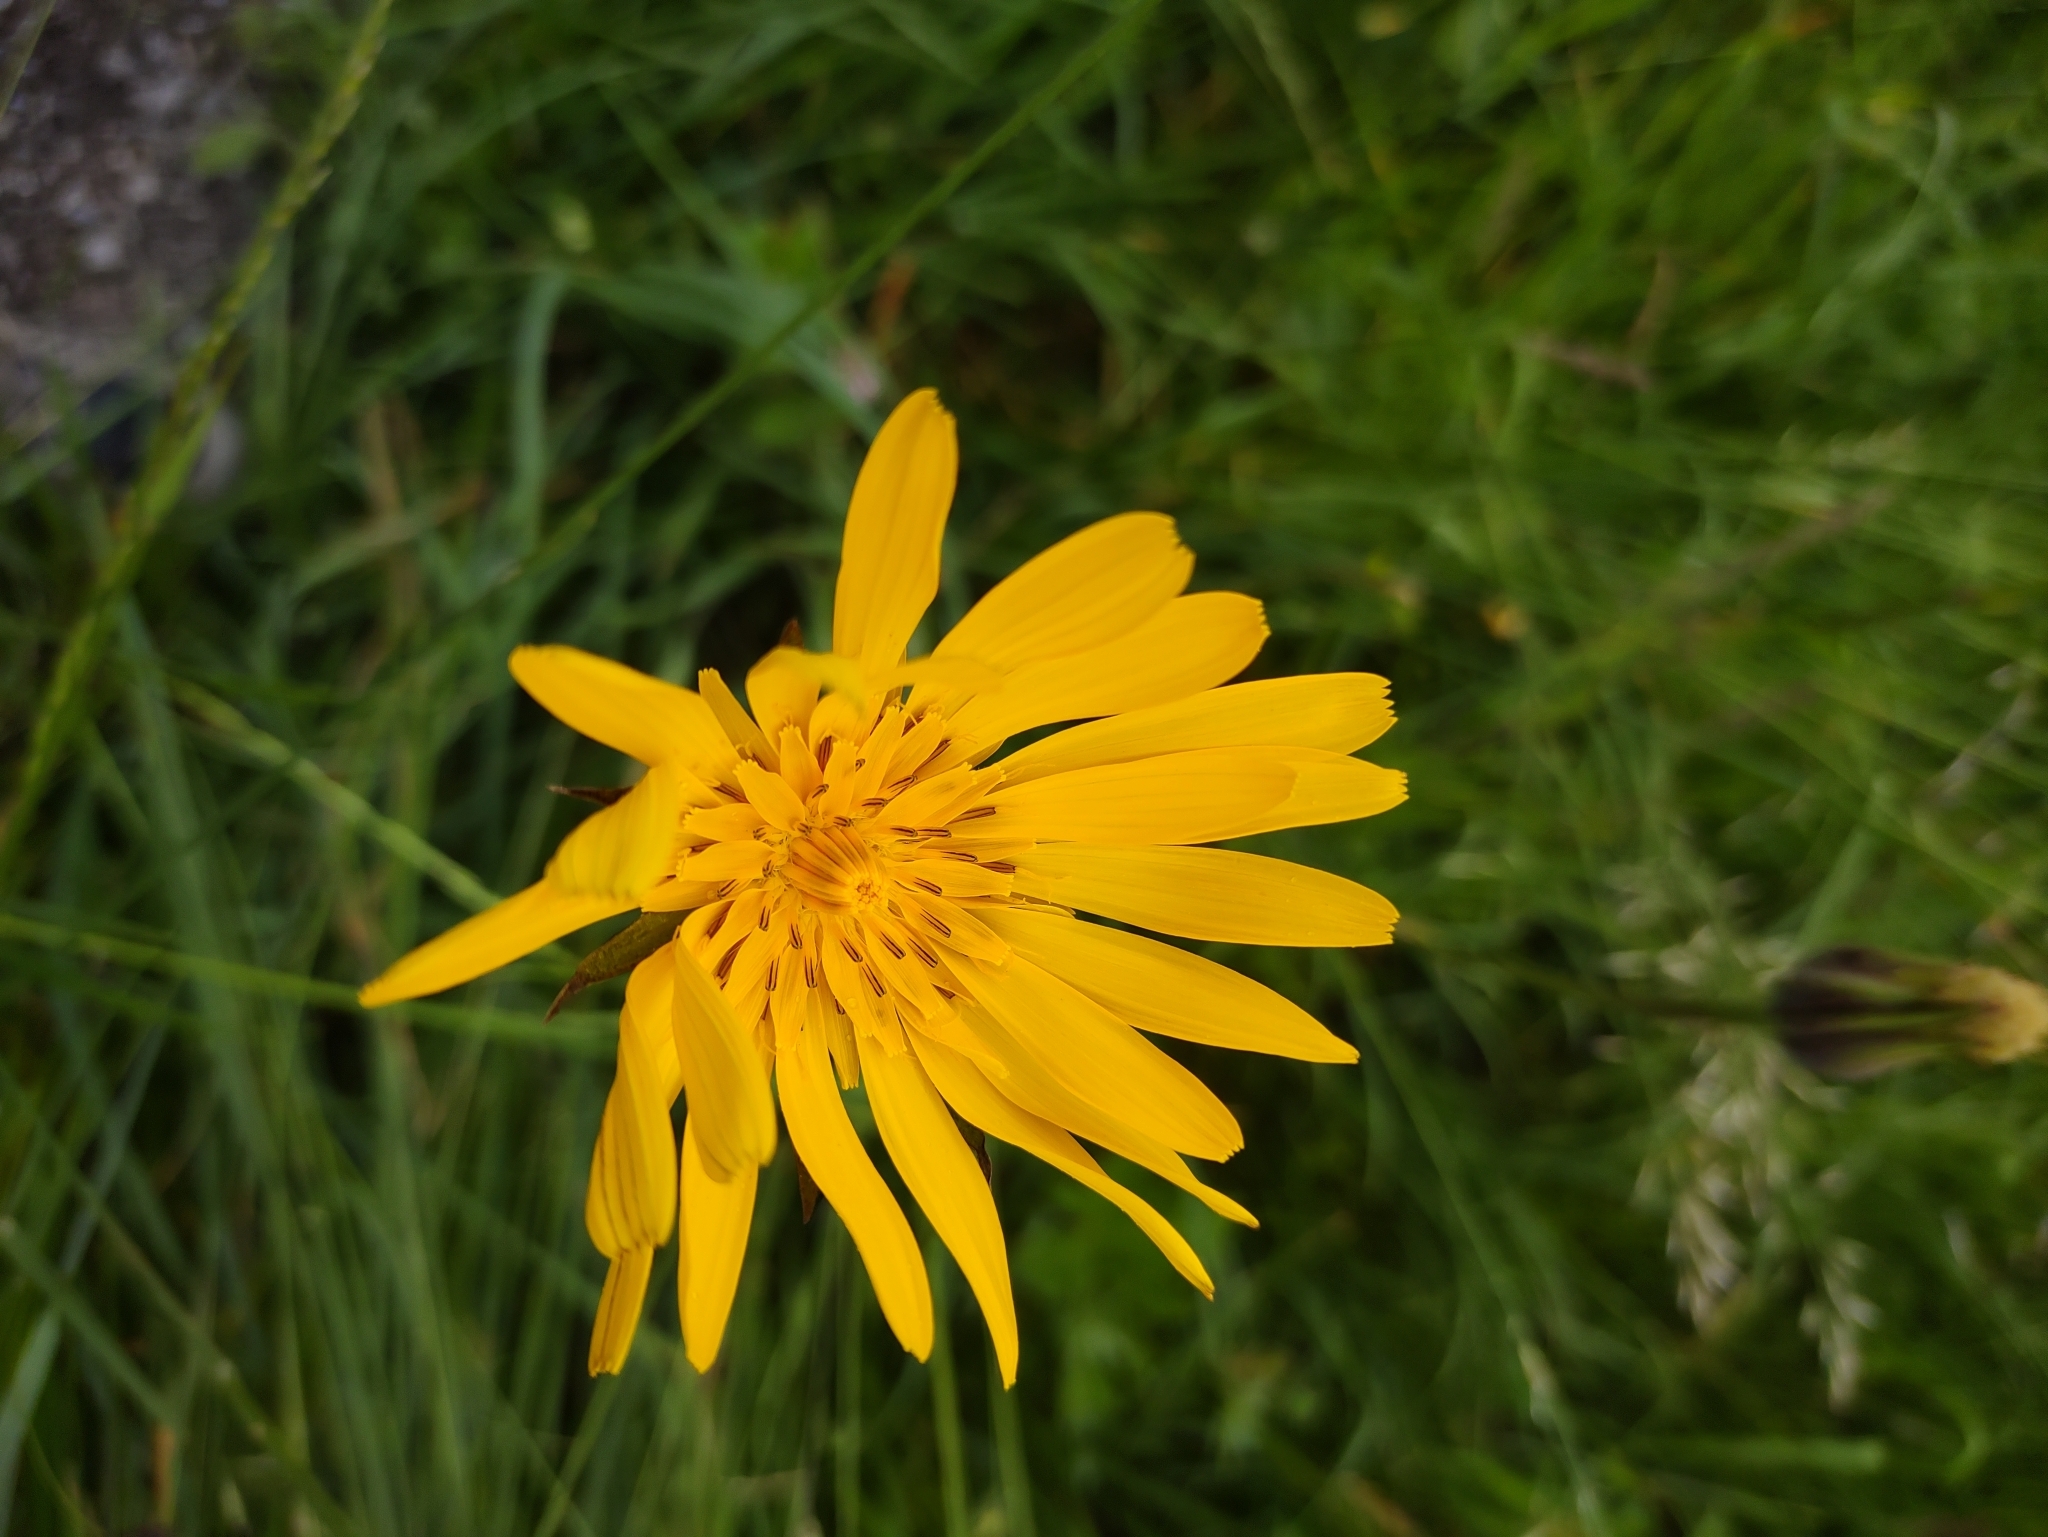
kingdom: Plantae
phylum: Tracheophyta
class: Magnoliopsida
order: Asterales
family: Asteraceae
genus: Tragopogon
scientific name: Tragopogon orientalis
